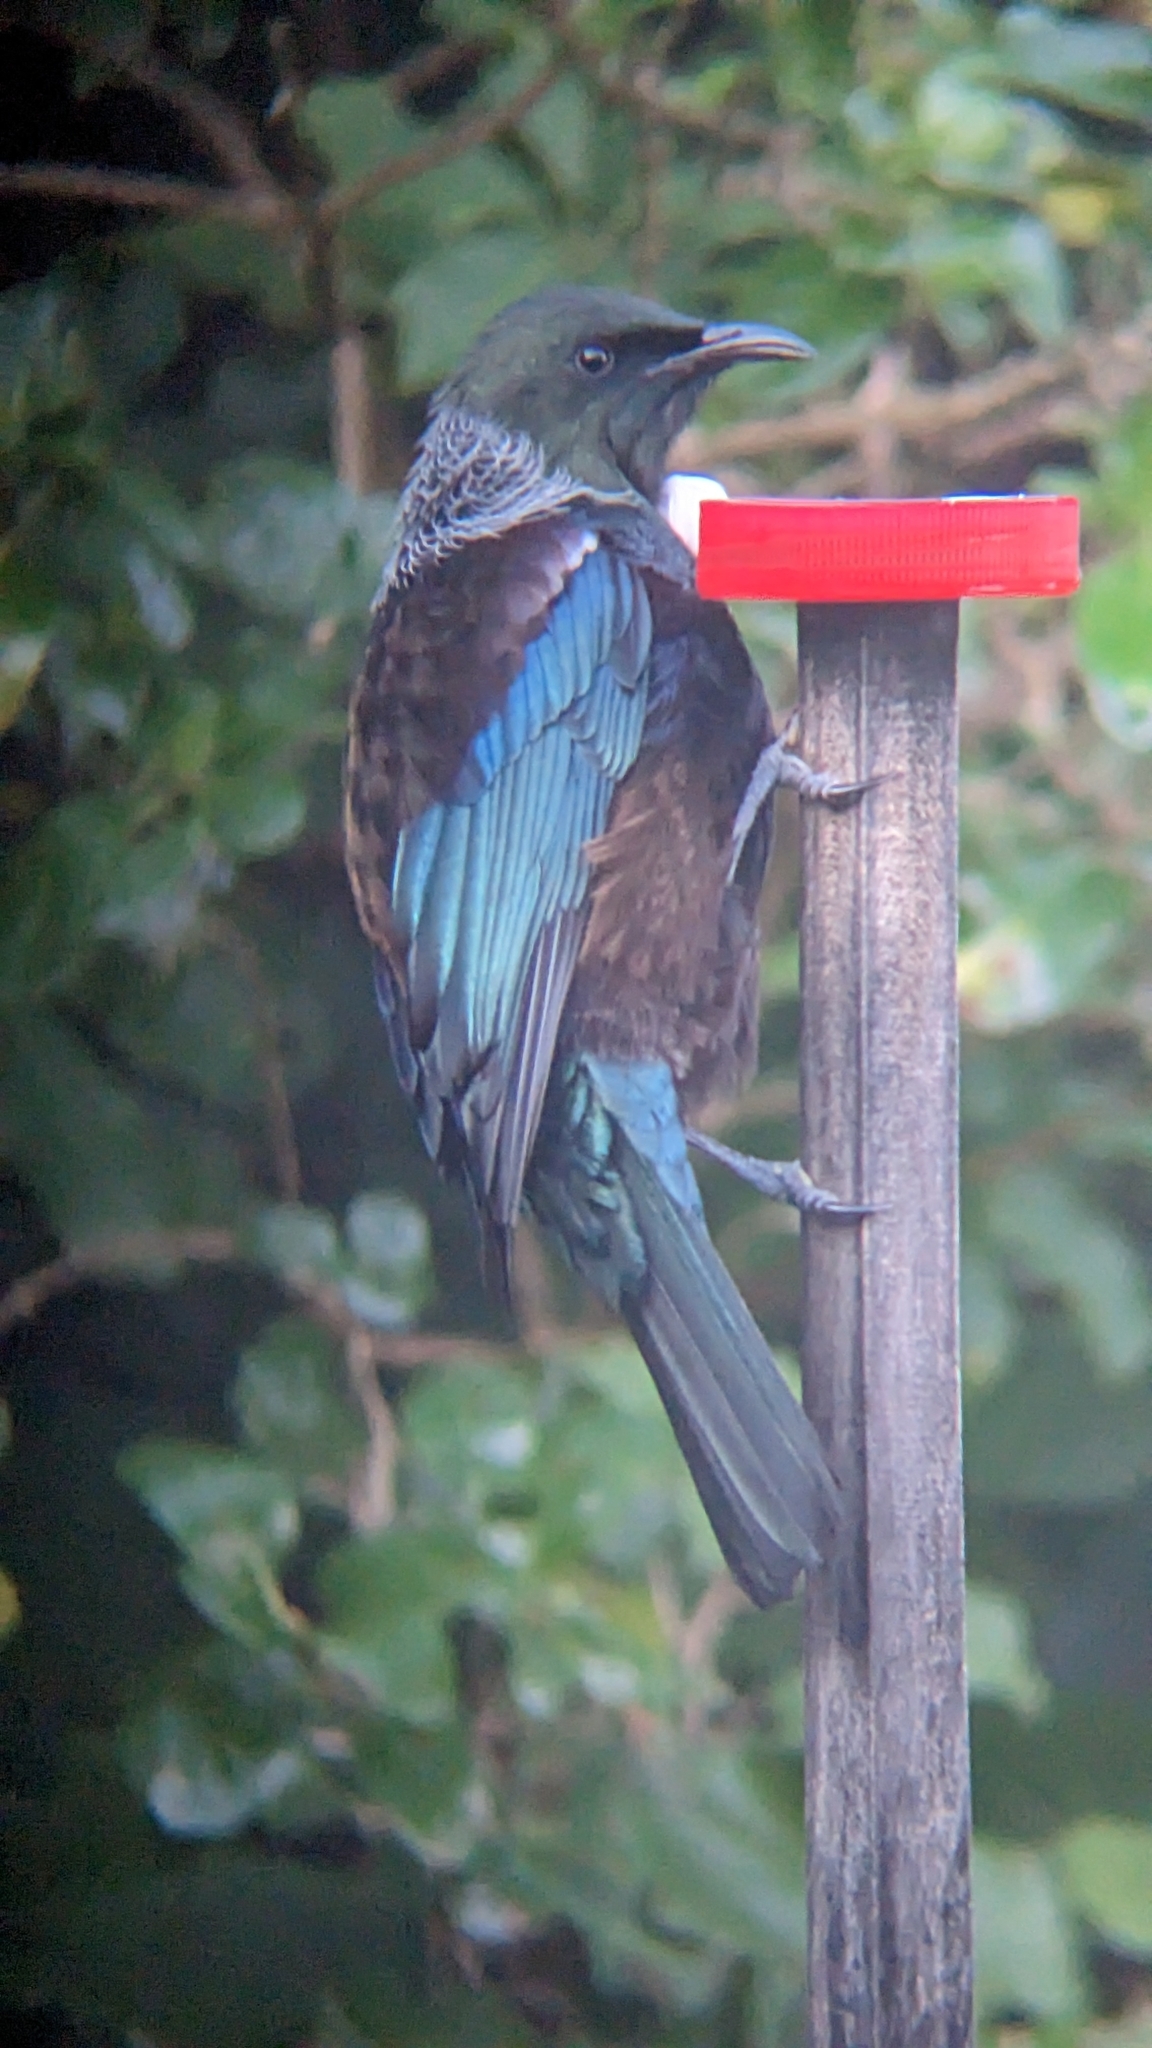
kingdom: Animalia
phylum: Chordata
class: Aves
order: Passeriformes
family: Meliphagidae
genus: Prosthemadera
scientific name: Prosthemadera novaeseelandiae
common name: Tui
